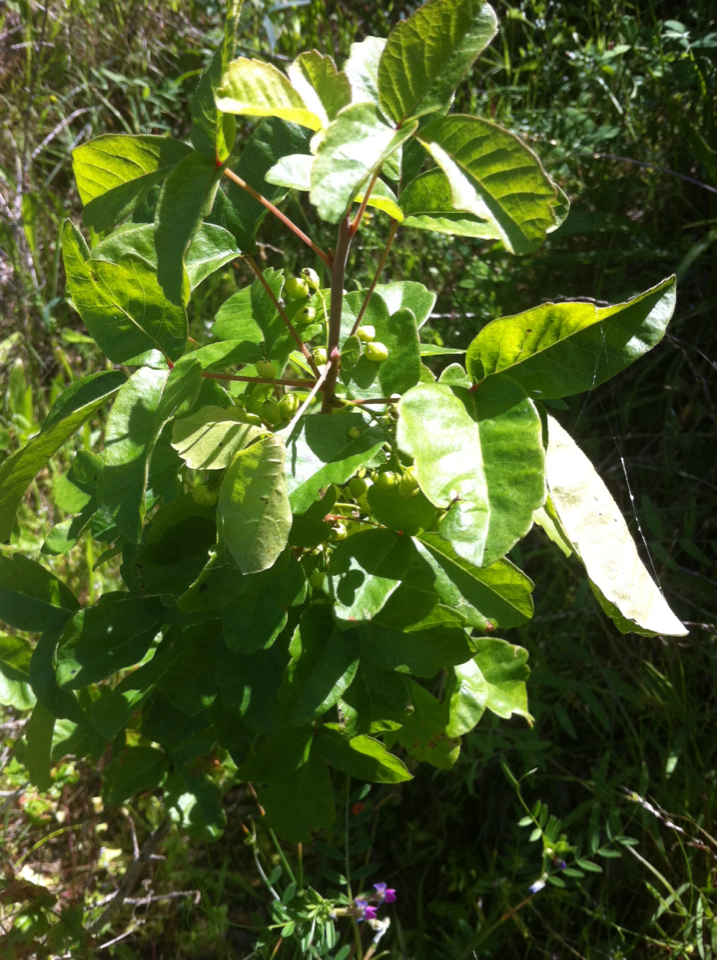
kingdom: Plantae
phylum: Tracheophyta
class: Magnoliopsida
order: Sapindales
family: Anacardiaceae
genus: Toxicodendron
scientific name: Toxicodendron diversilobum
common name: Pacific poison-oak
